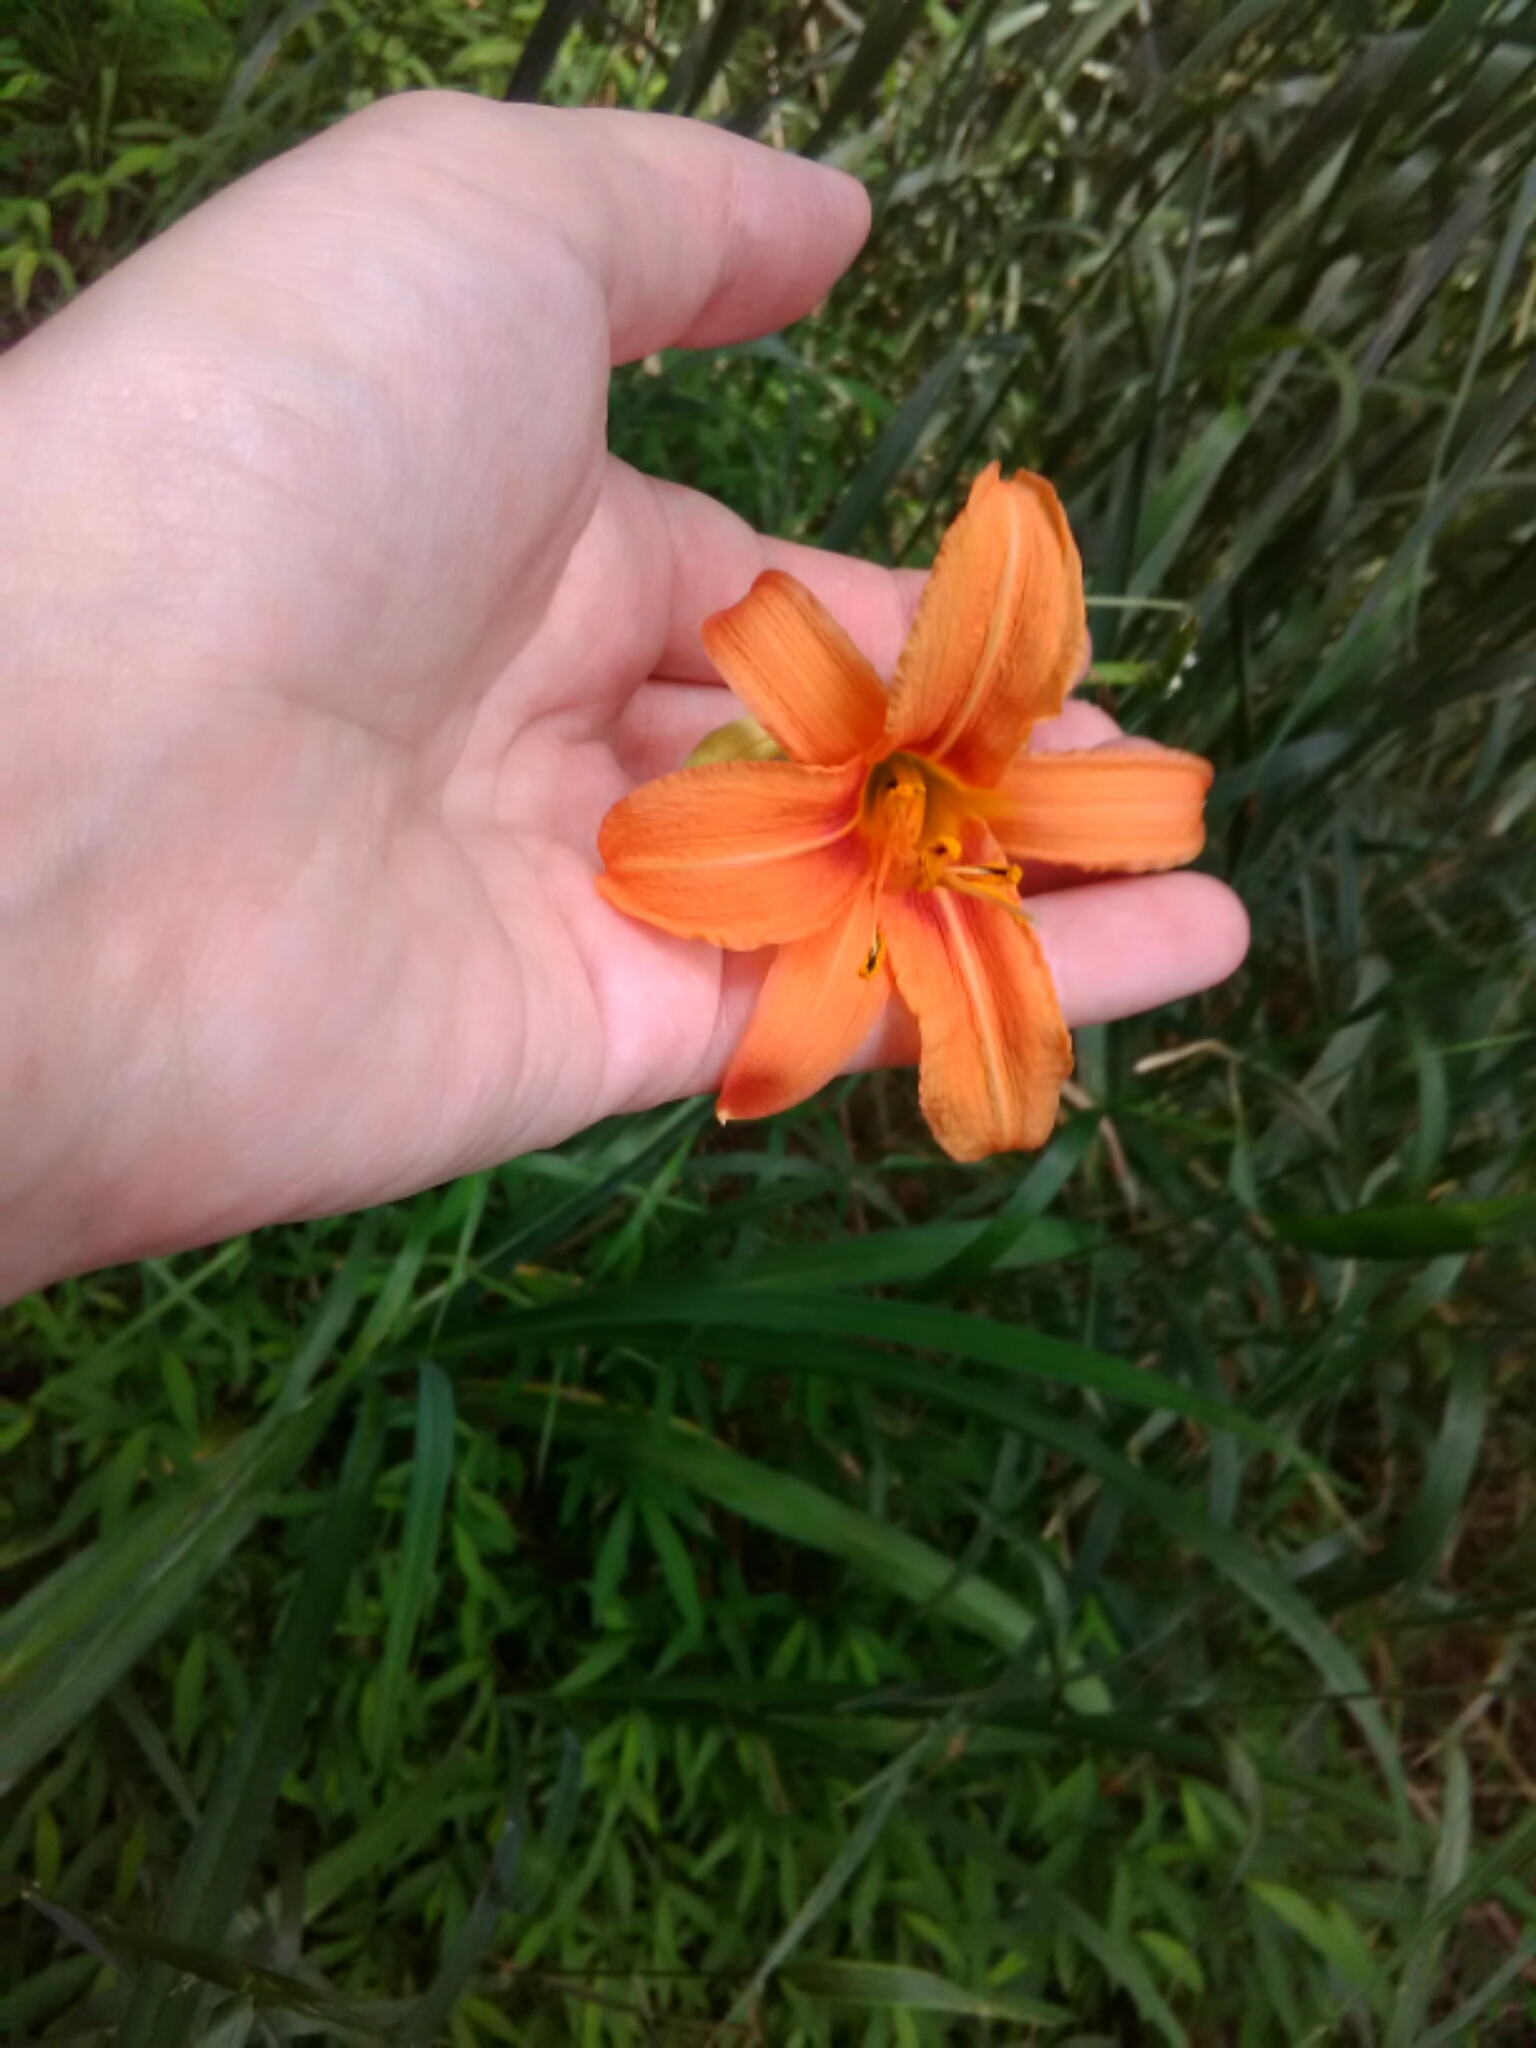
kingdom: Plantae
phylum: Tracheophyta
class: Liliopsida
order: Asparagales
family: Asphodelaceae
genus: Hemerocallis
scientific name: Hemerocallis fulva
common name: Orange day-lily
